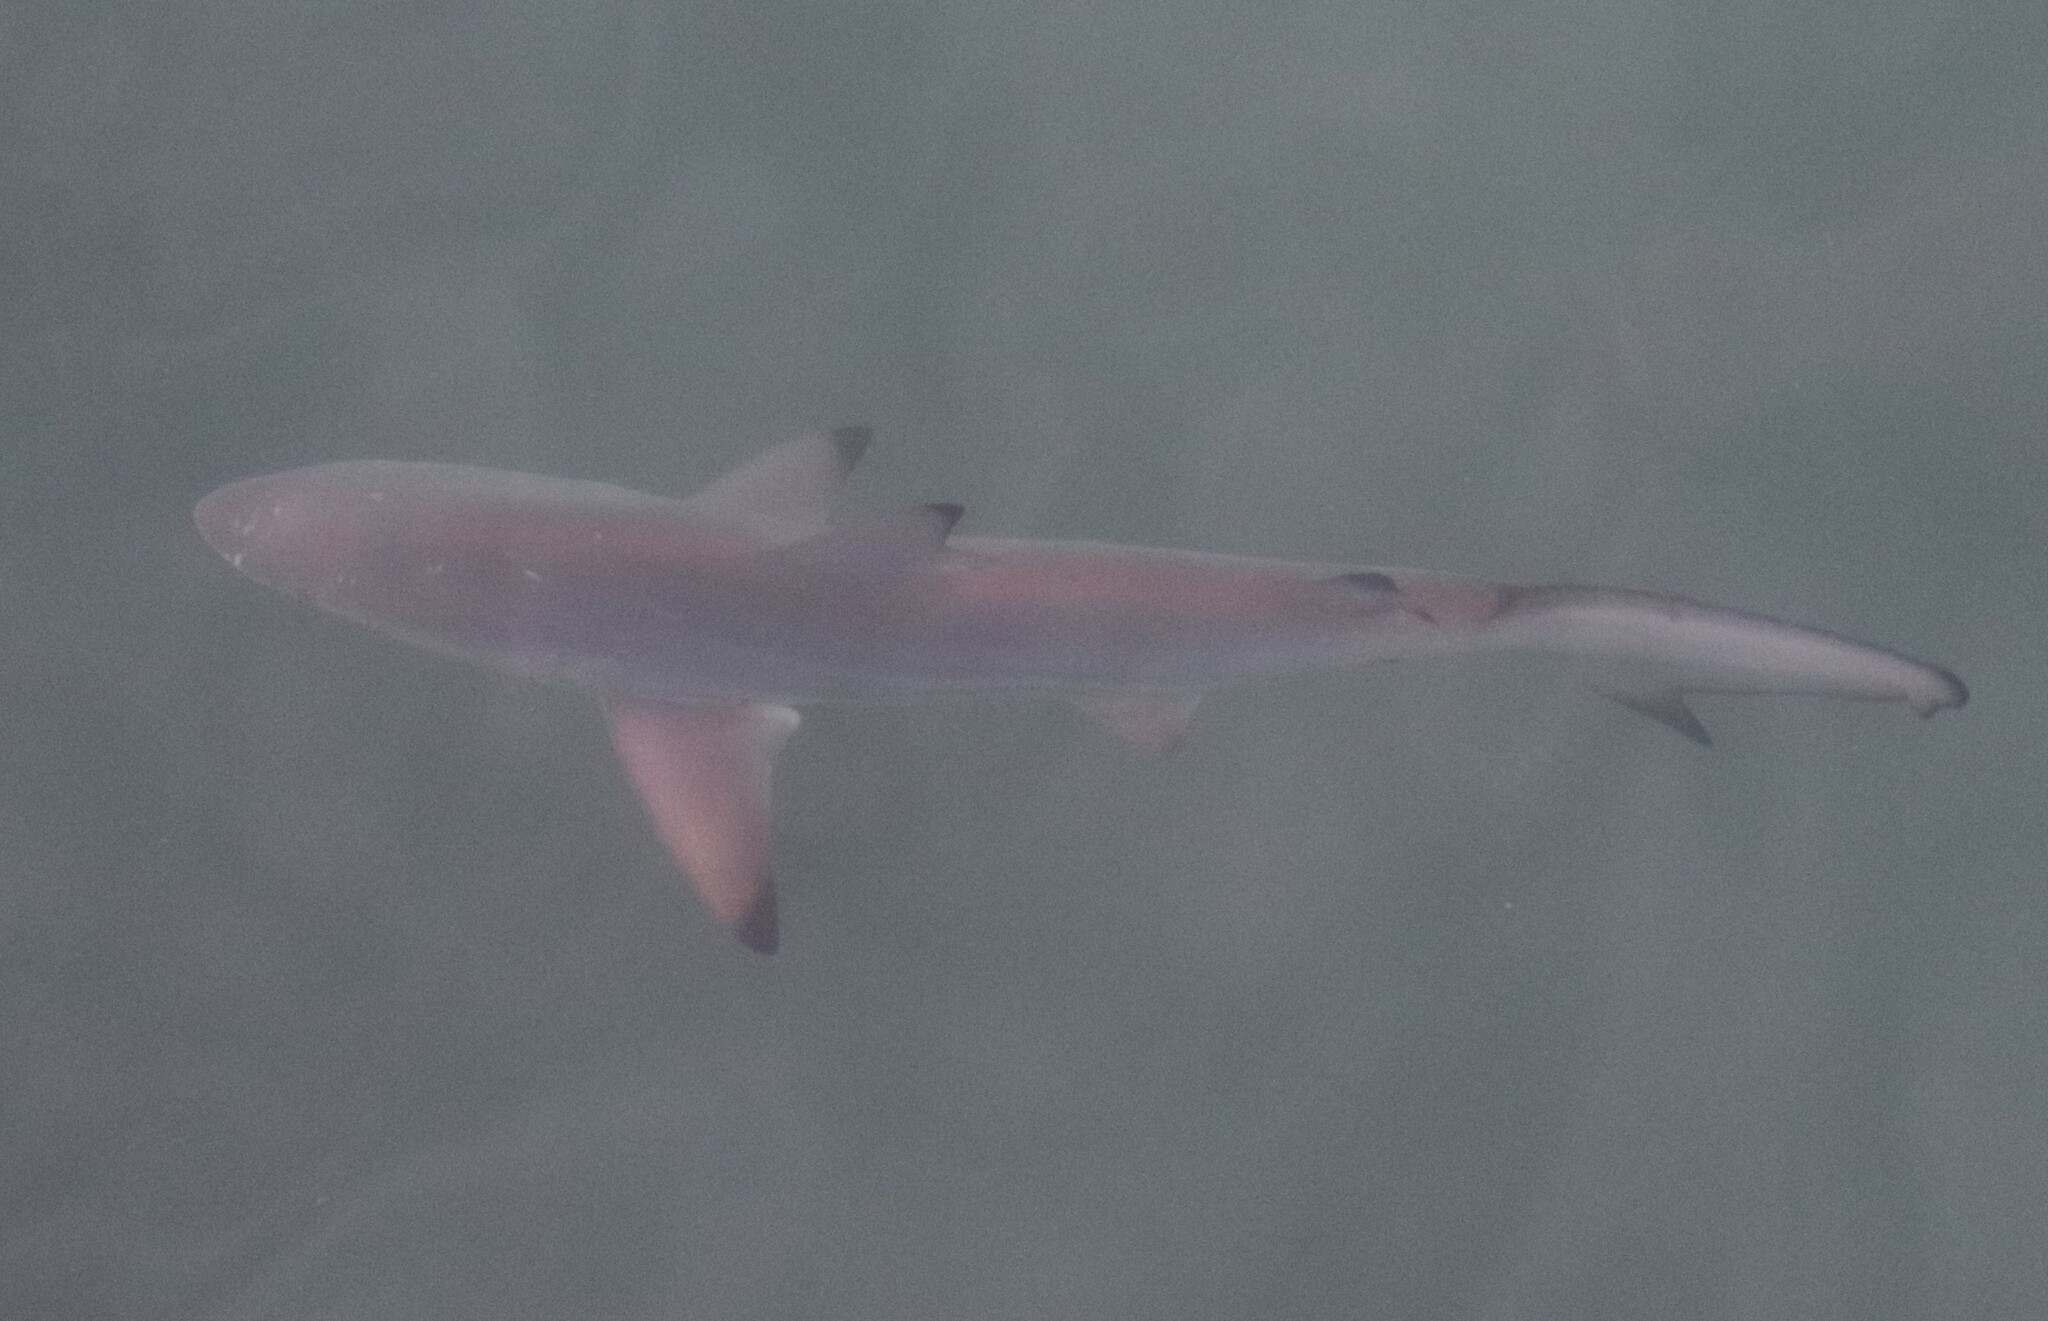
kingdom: Animalia
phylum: Chordata
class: Elasmobranchii
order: Carcharhiniformes
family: Carcharhinidae
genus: Carcharhinus
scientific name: Carcharhinus limbatus
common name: Blacktip shark
